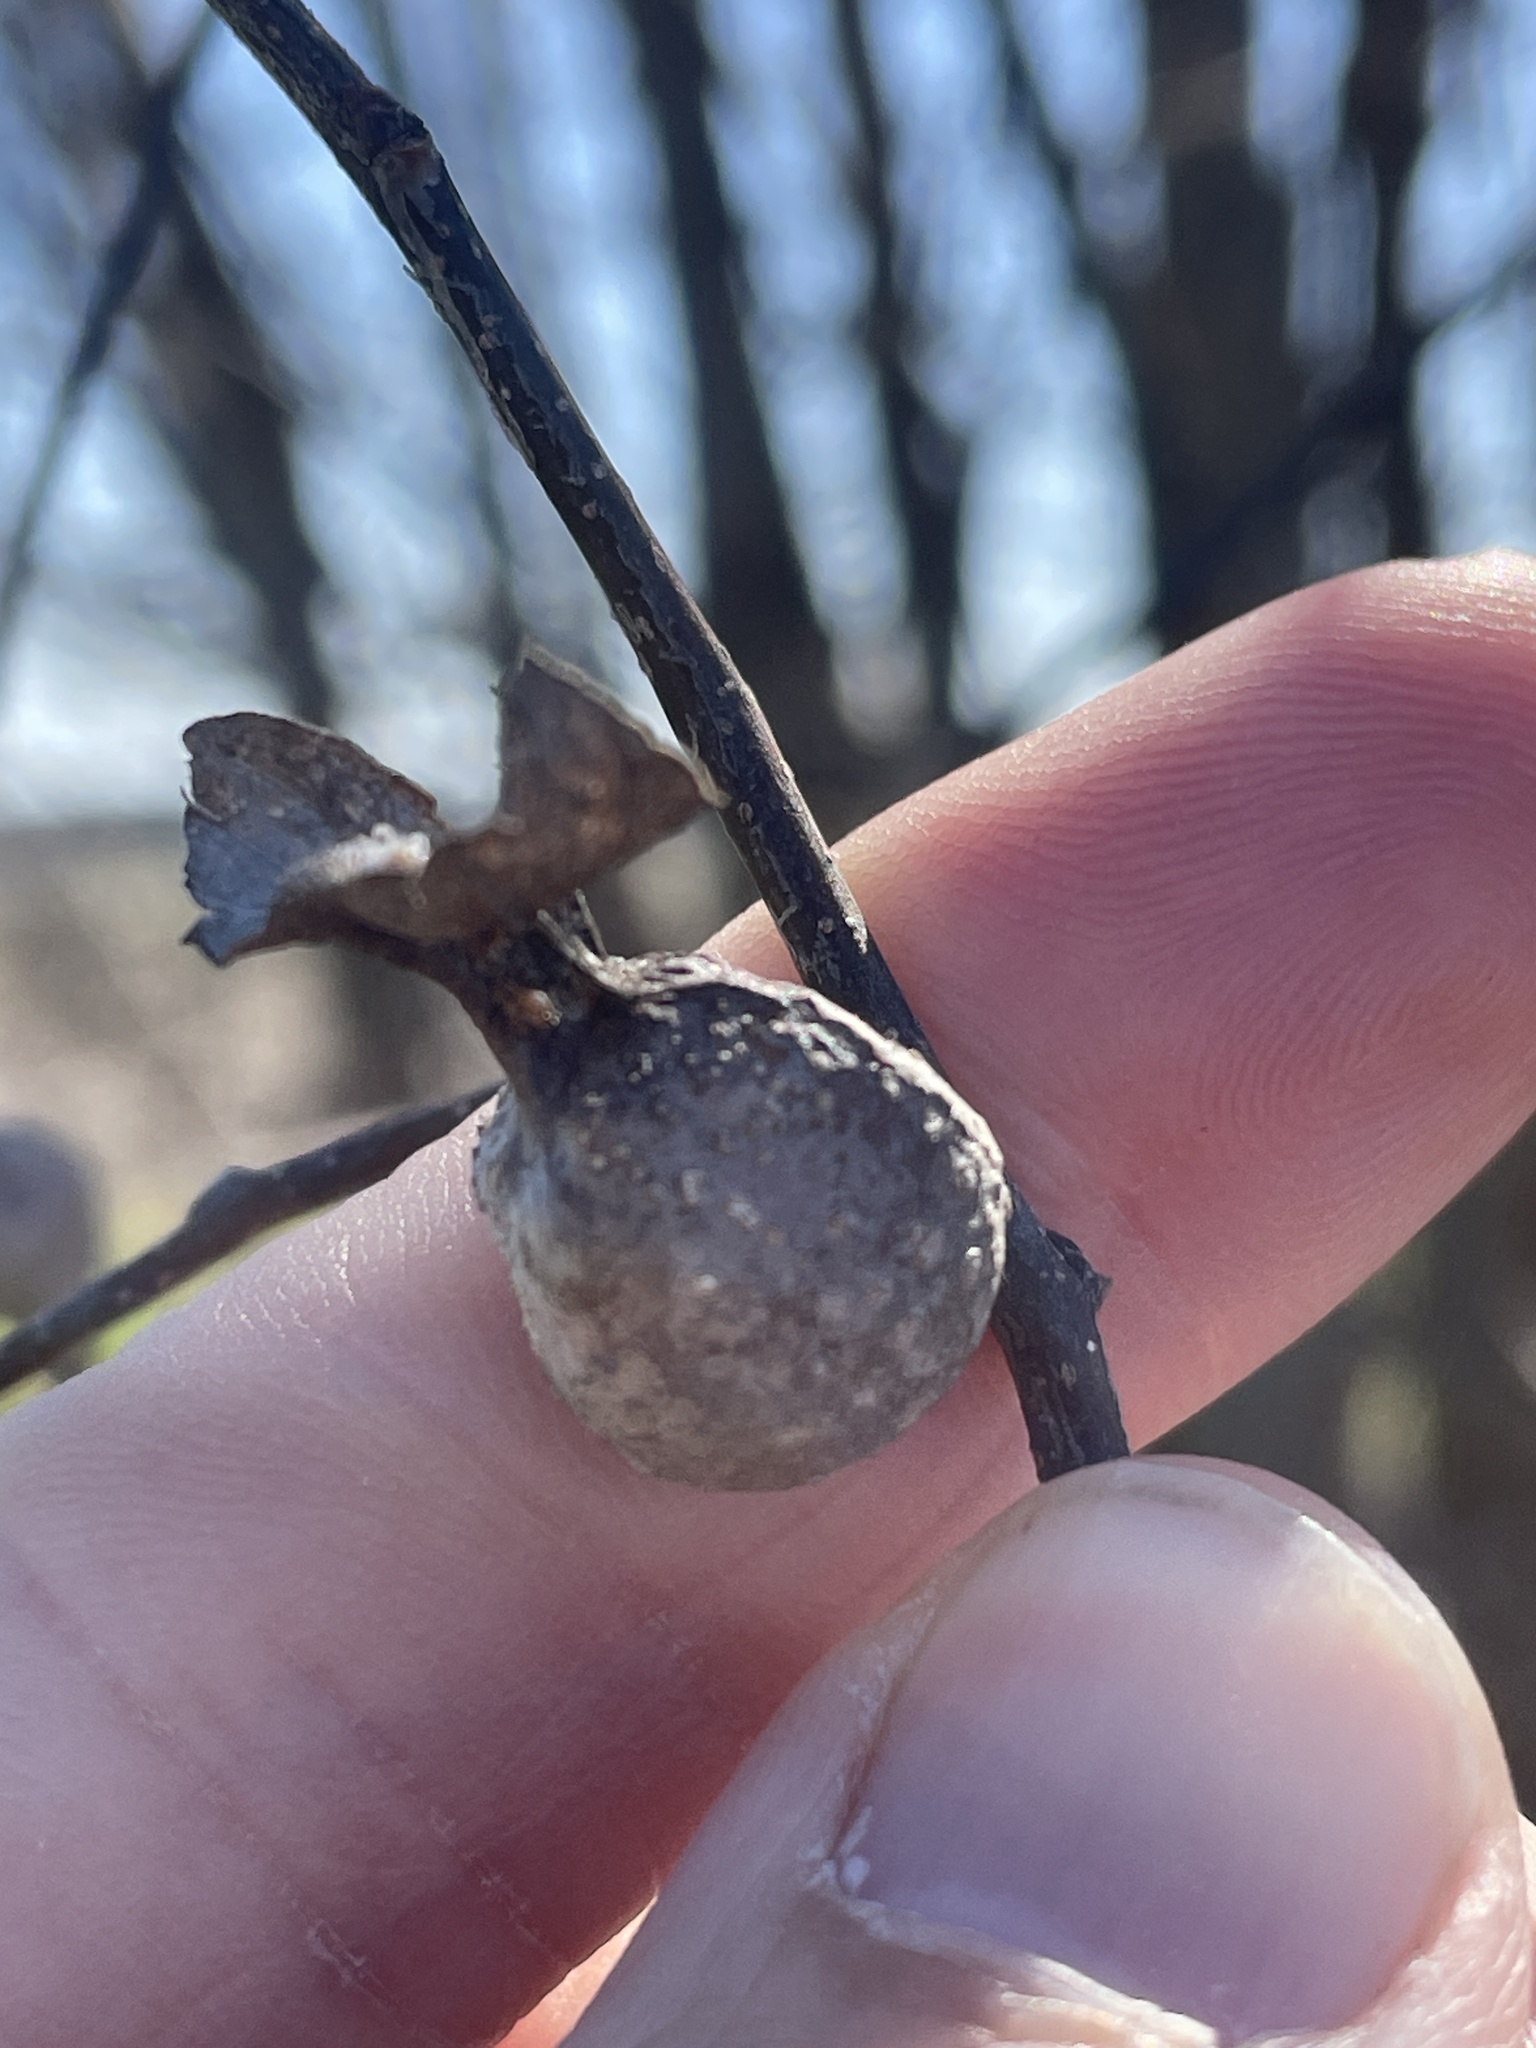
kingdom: Animalia
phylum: Arthropoda
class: Insecta
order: Hemiptera
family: Aphalaridae
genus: Pachypsylla
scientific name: Pachypsylla venusta
